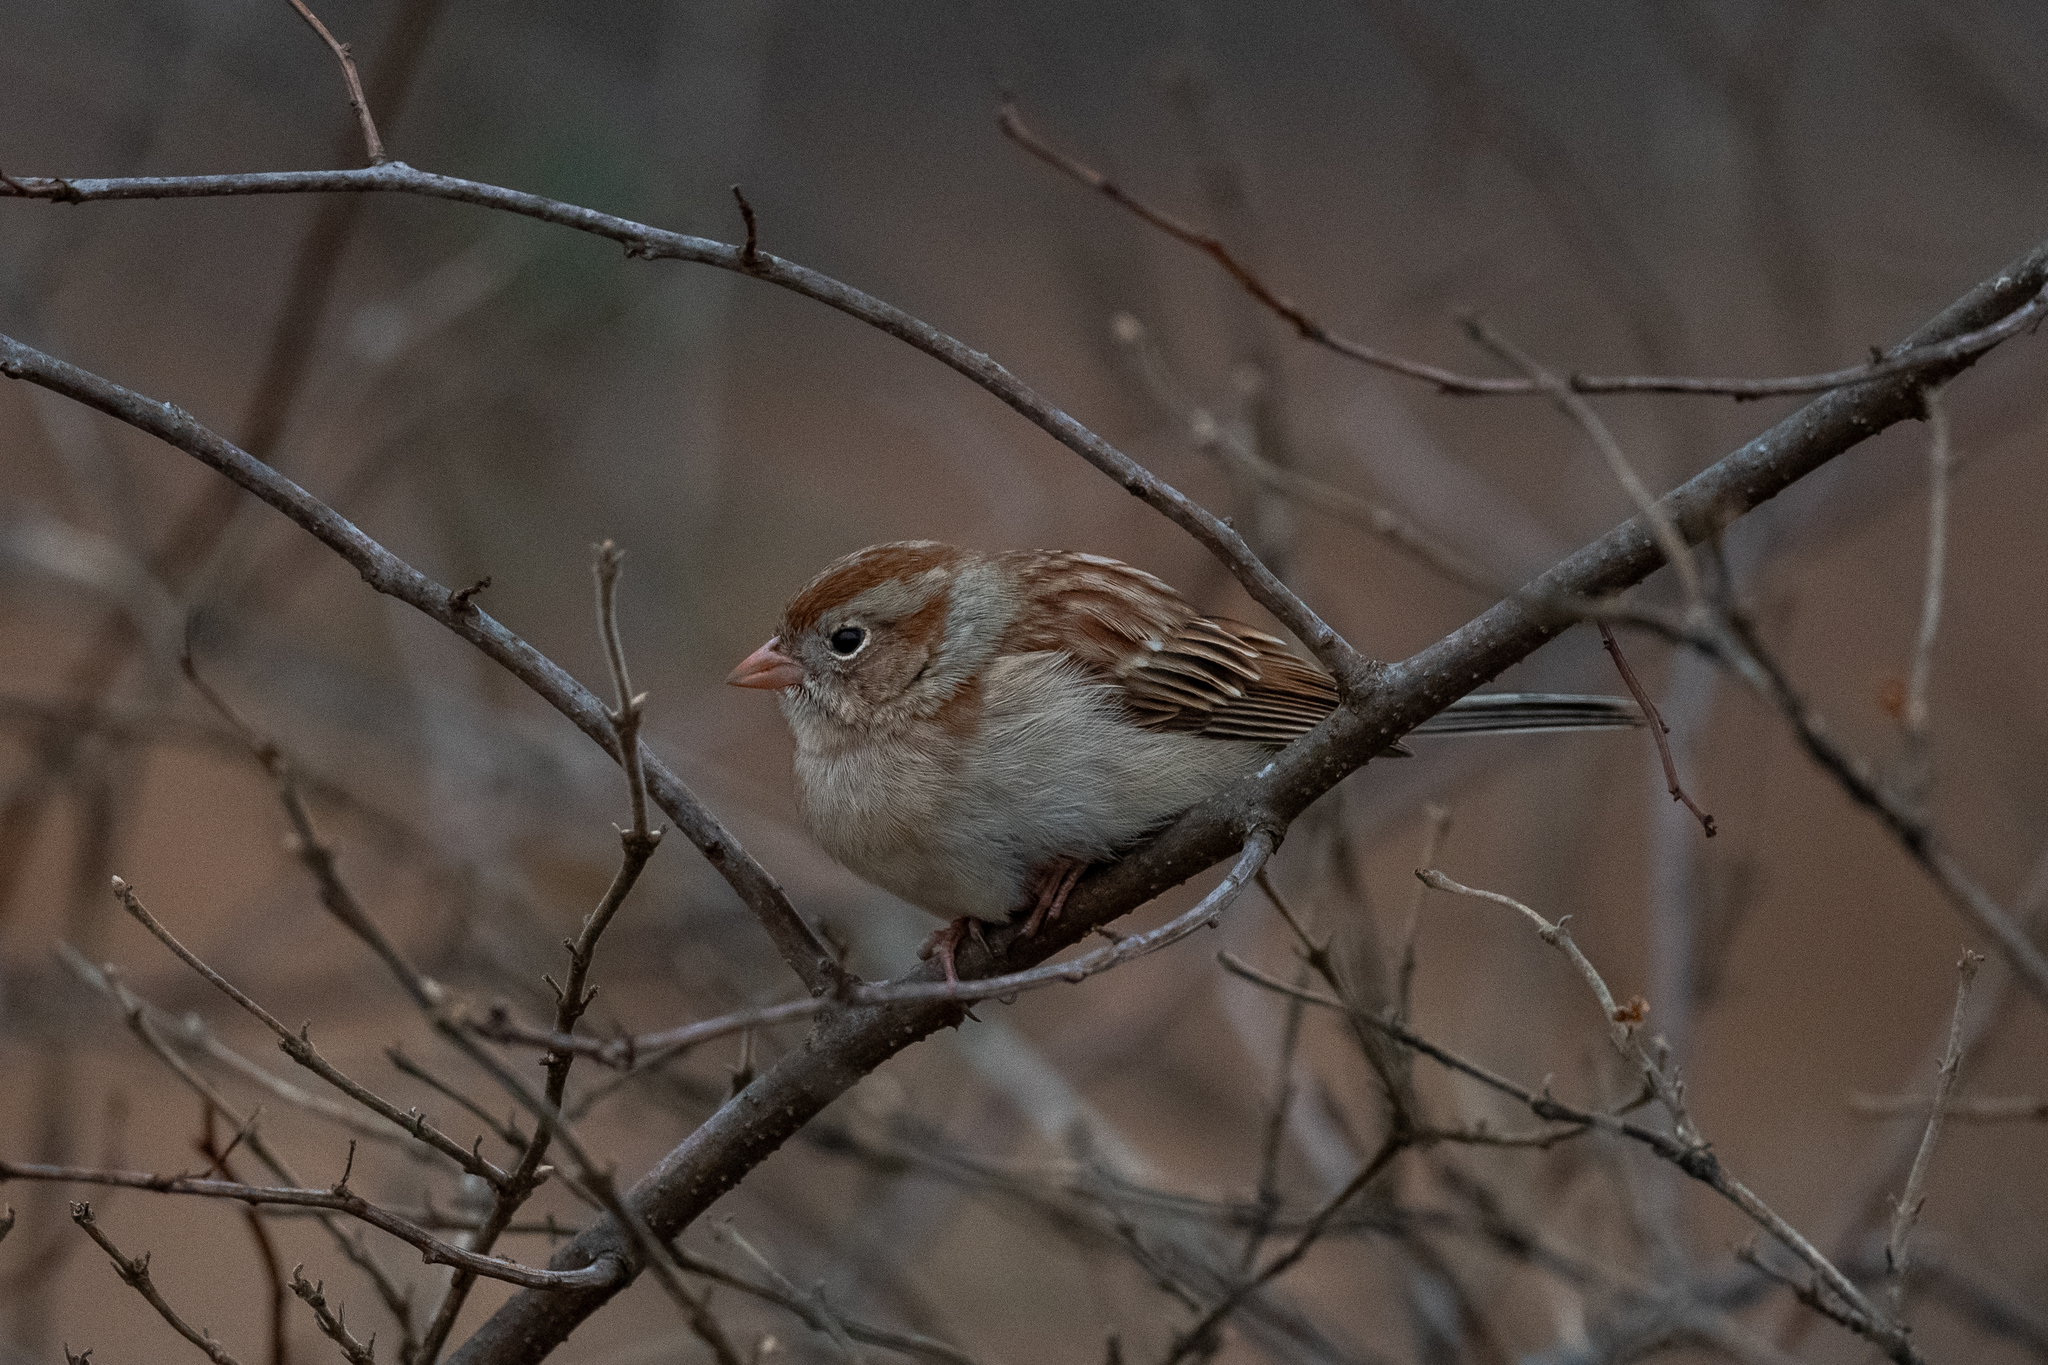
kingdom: Animalia
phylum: Chordata
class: Aves
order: Passeriformes
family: Passerellidae
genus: Spizella
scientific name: Spizella pusilla
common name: Field sparrow
